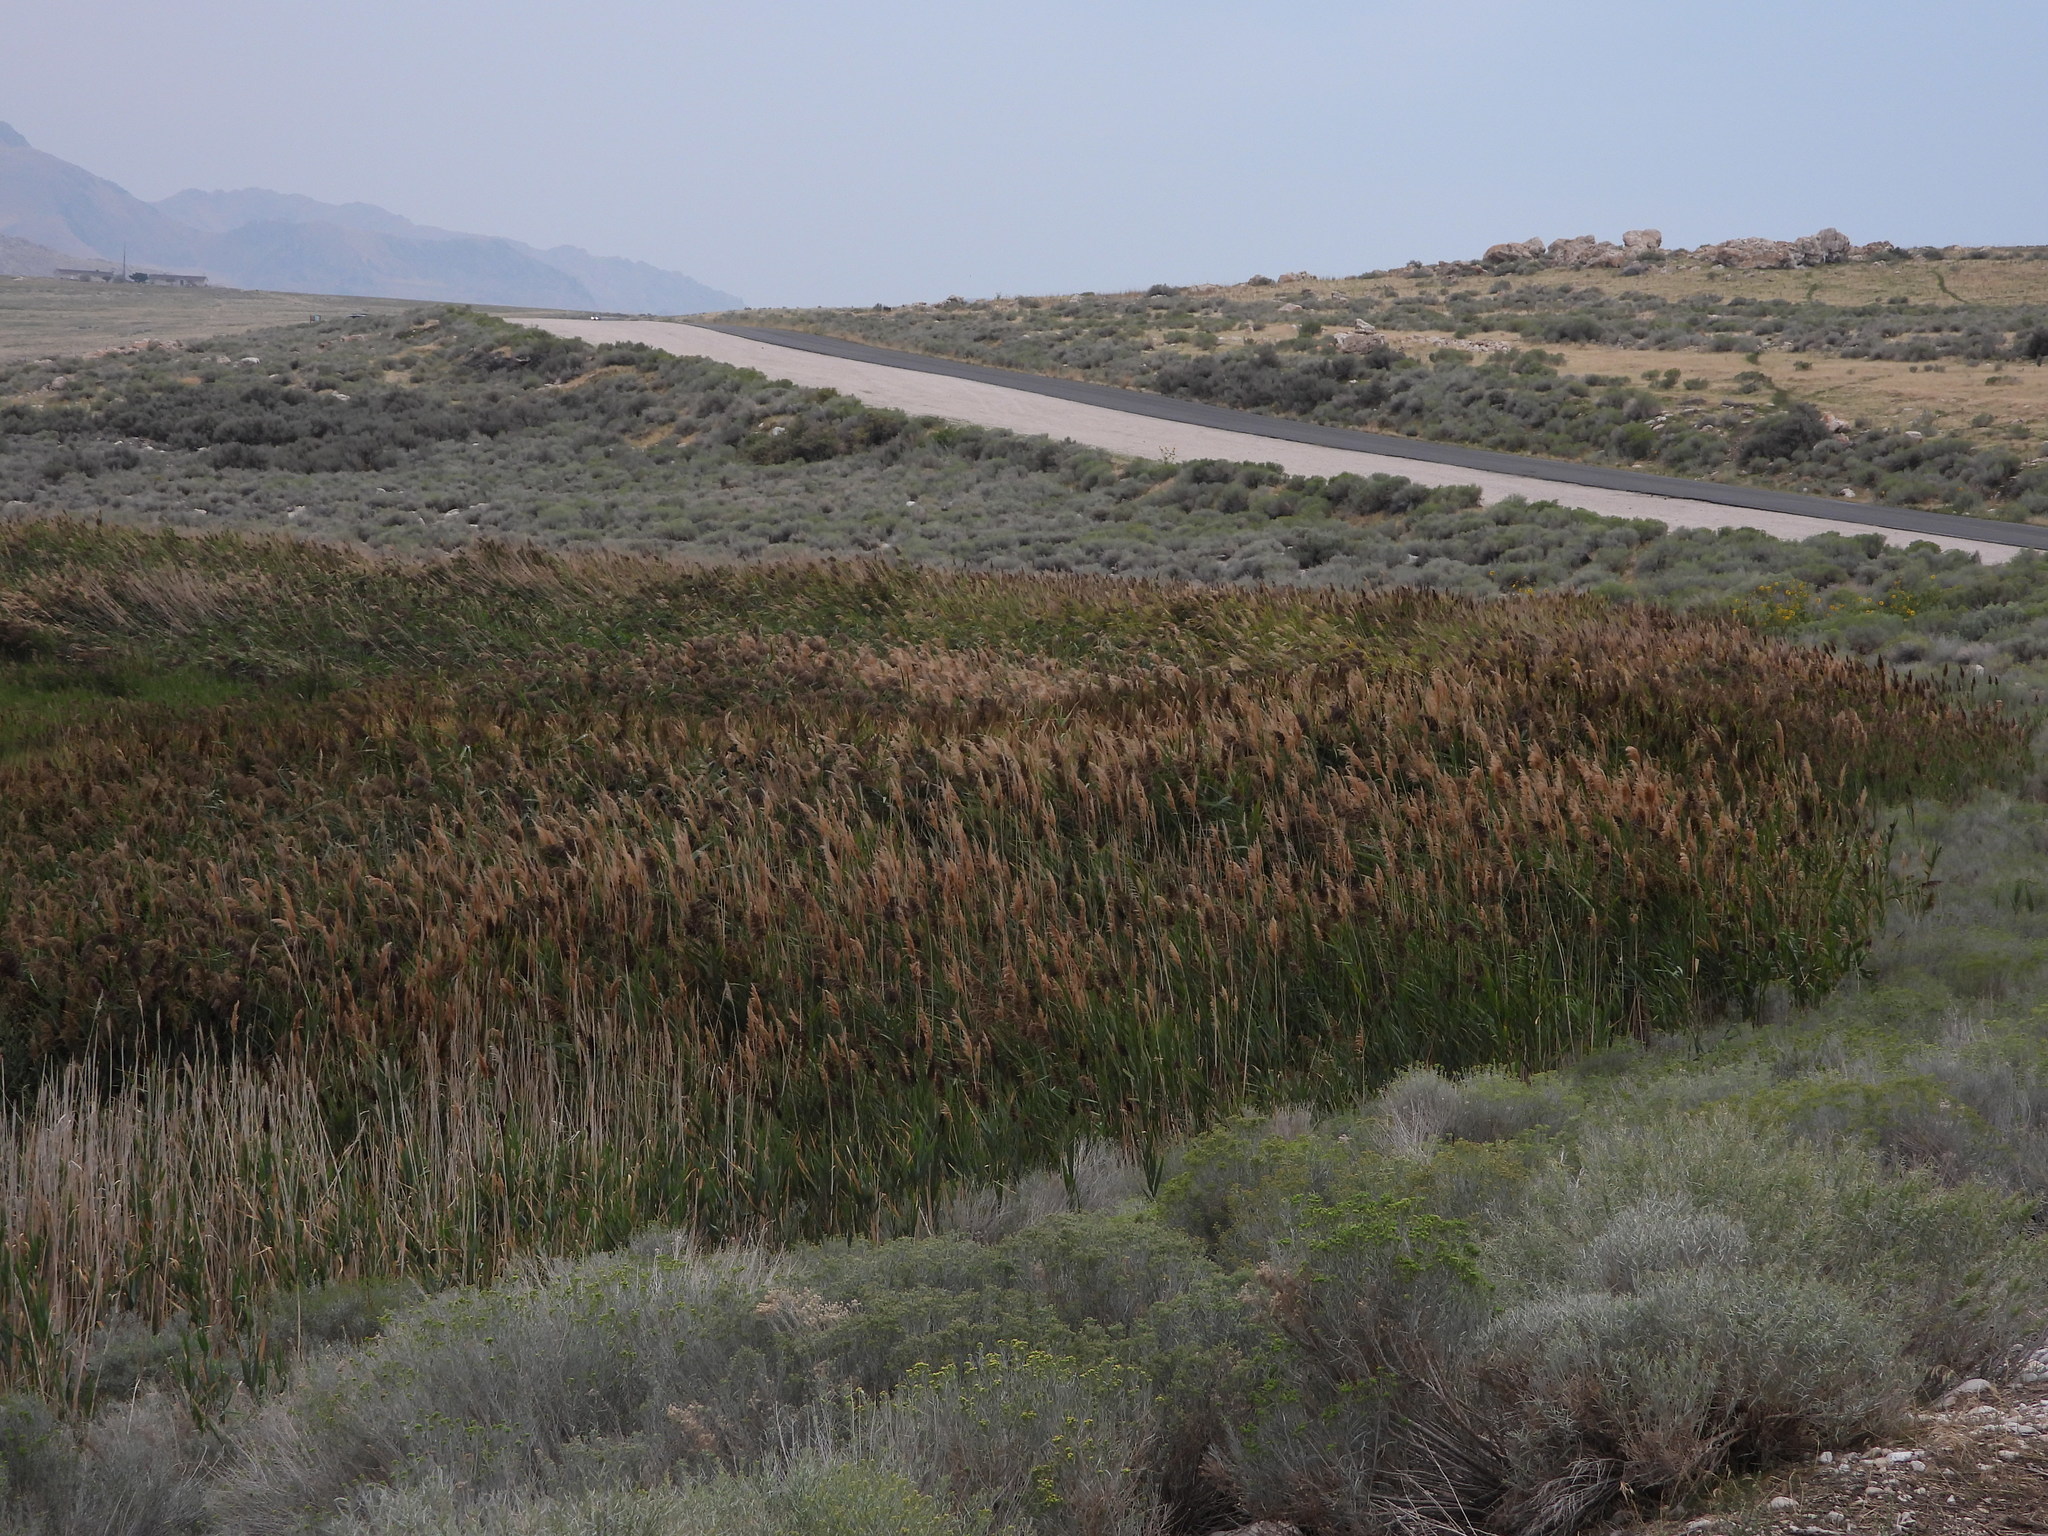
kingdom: Plantae
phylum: Tracheophyta
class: Liliopsida
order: Poales
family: Poaceae
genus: Phragmites
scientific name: Phragmites australis
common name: Common reed
